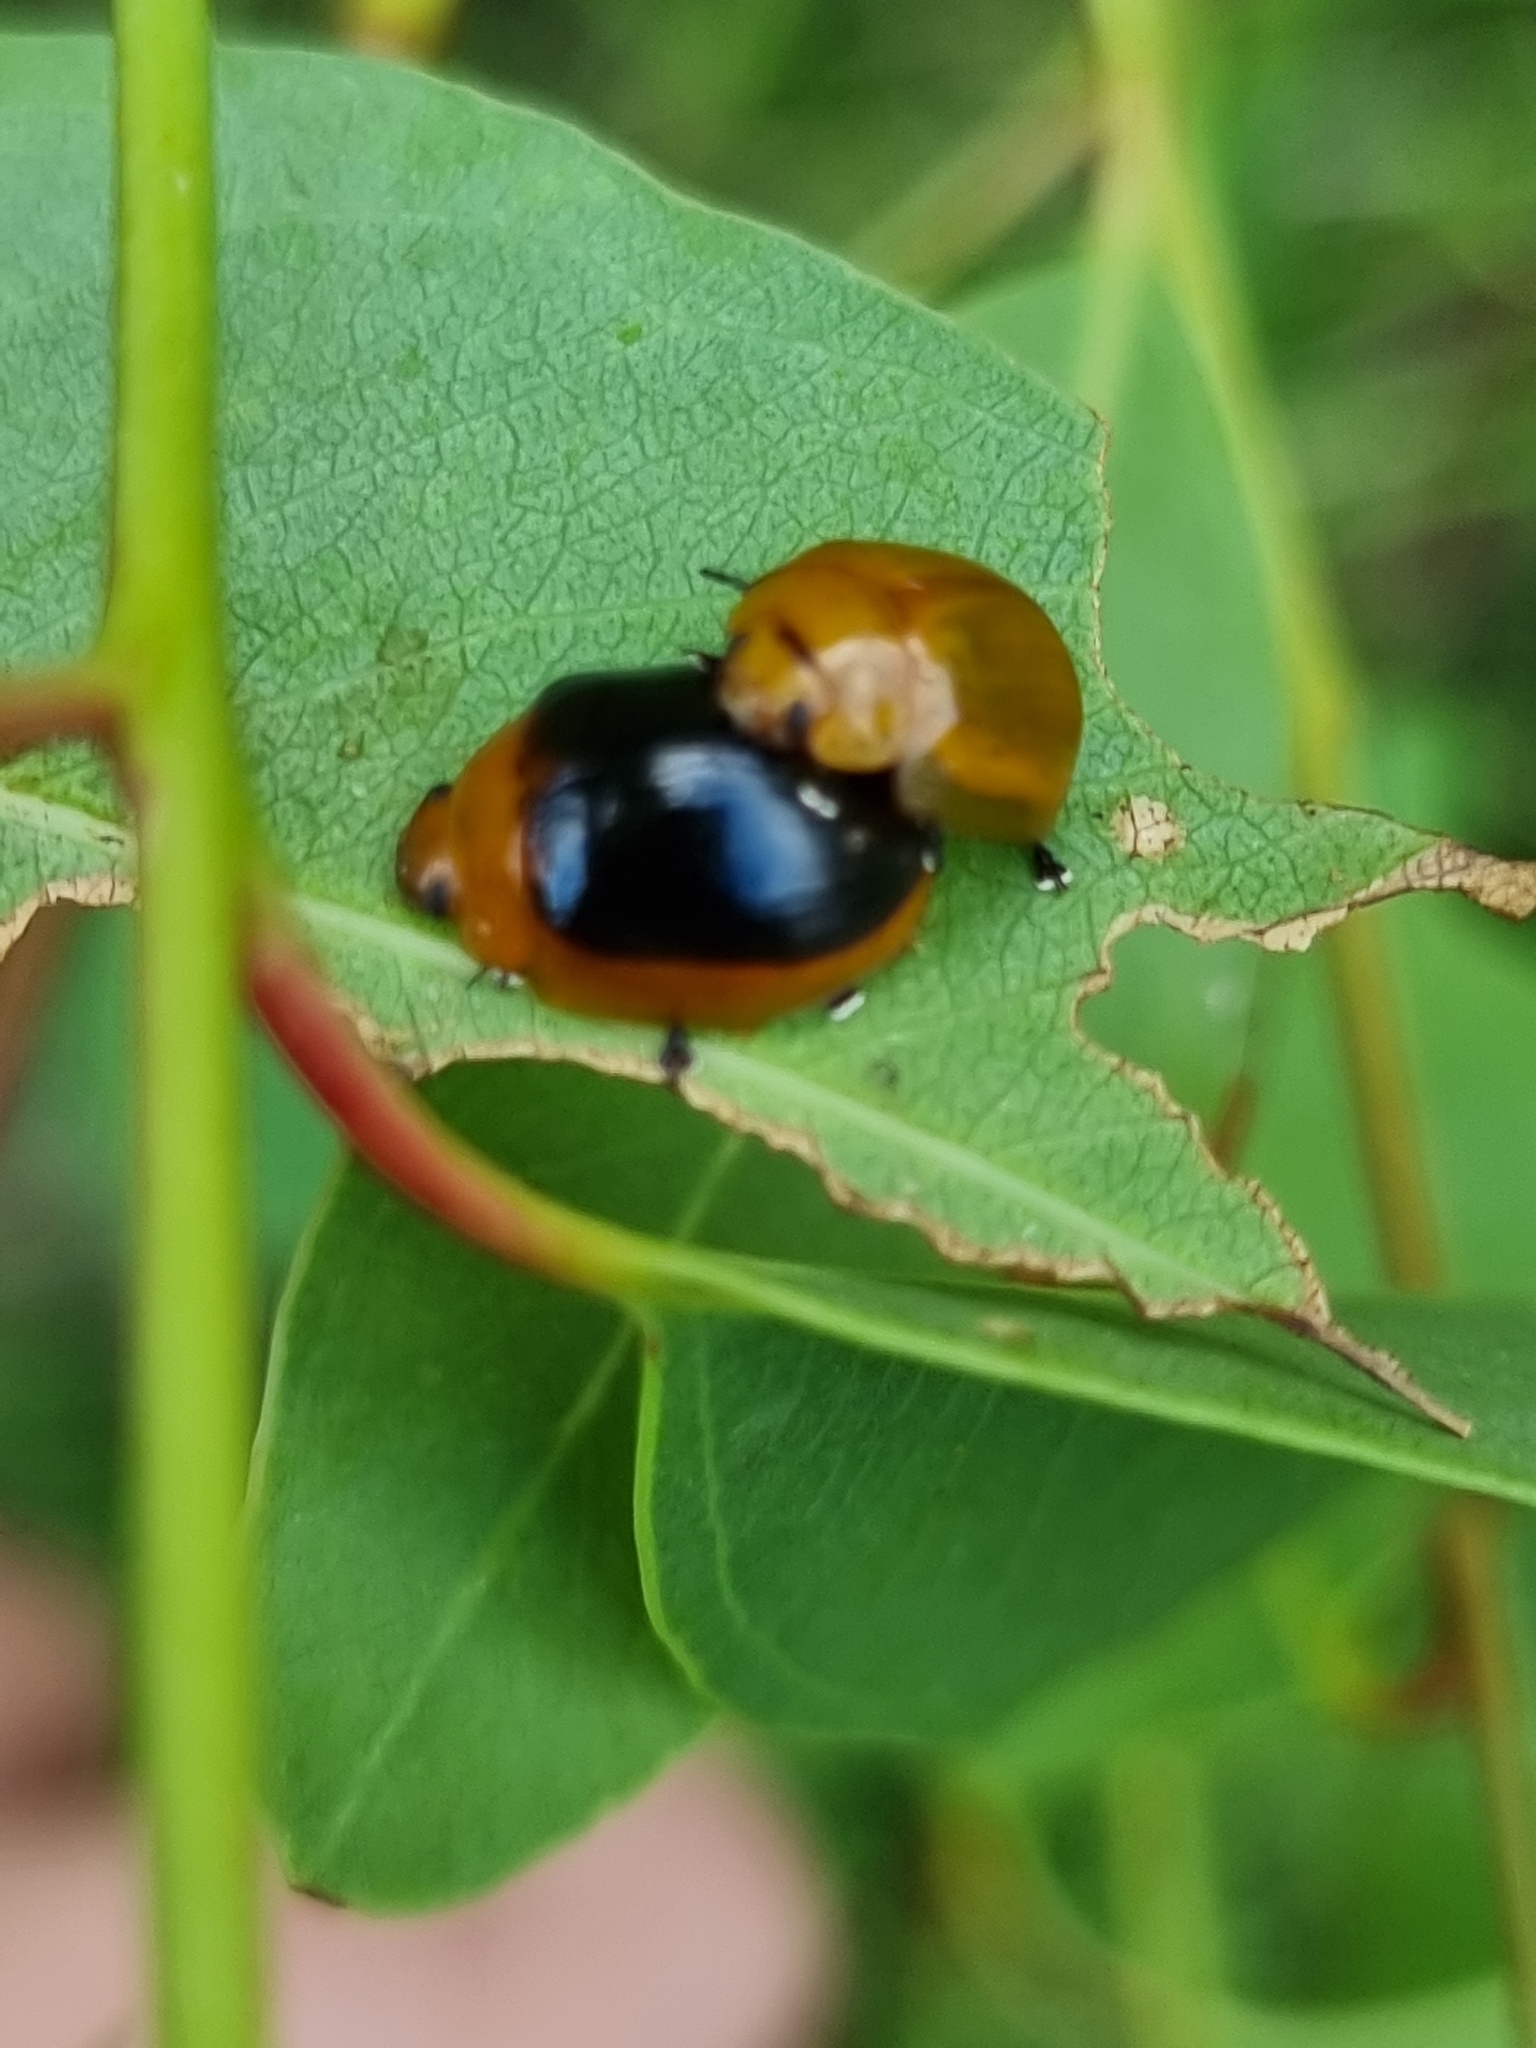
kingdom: Animalia
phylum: Arthropoda
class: Insecta
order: Coleoptera
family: Chrysomelidae
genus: Paropsisterna
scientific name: Paropsisterna cloelia
